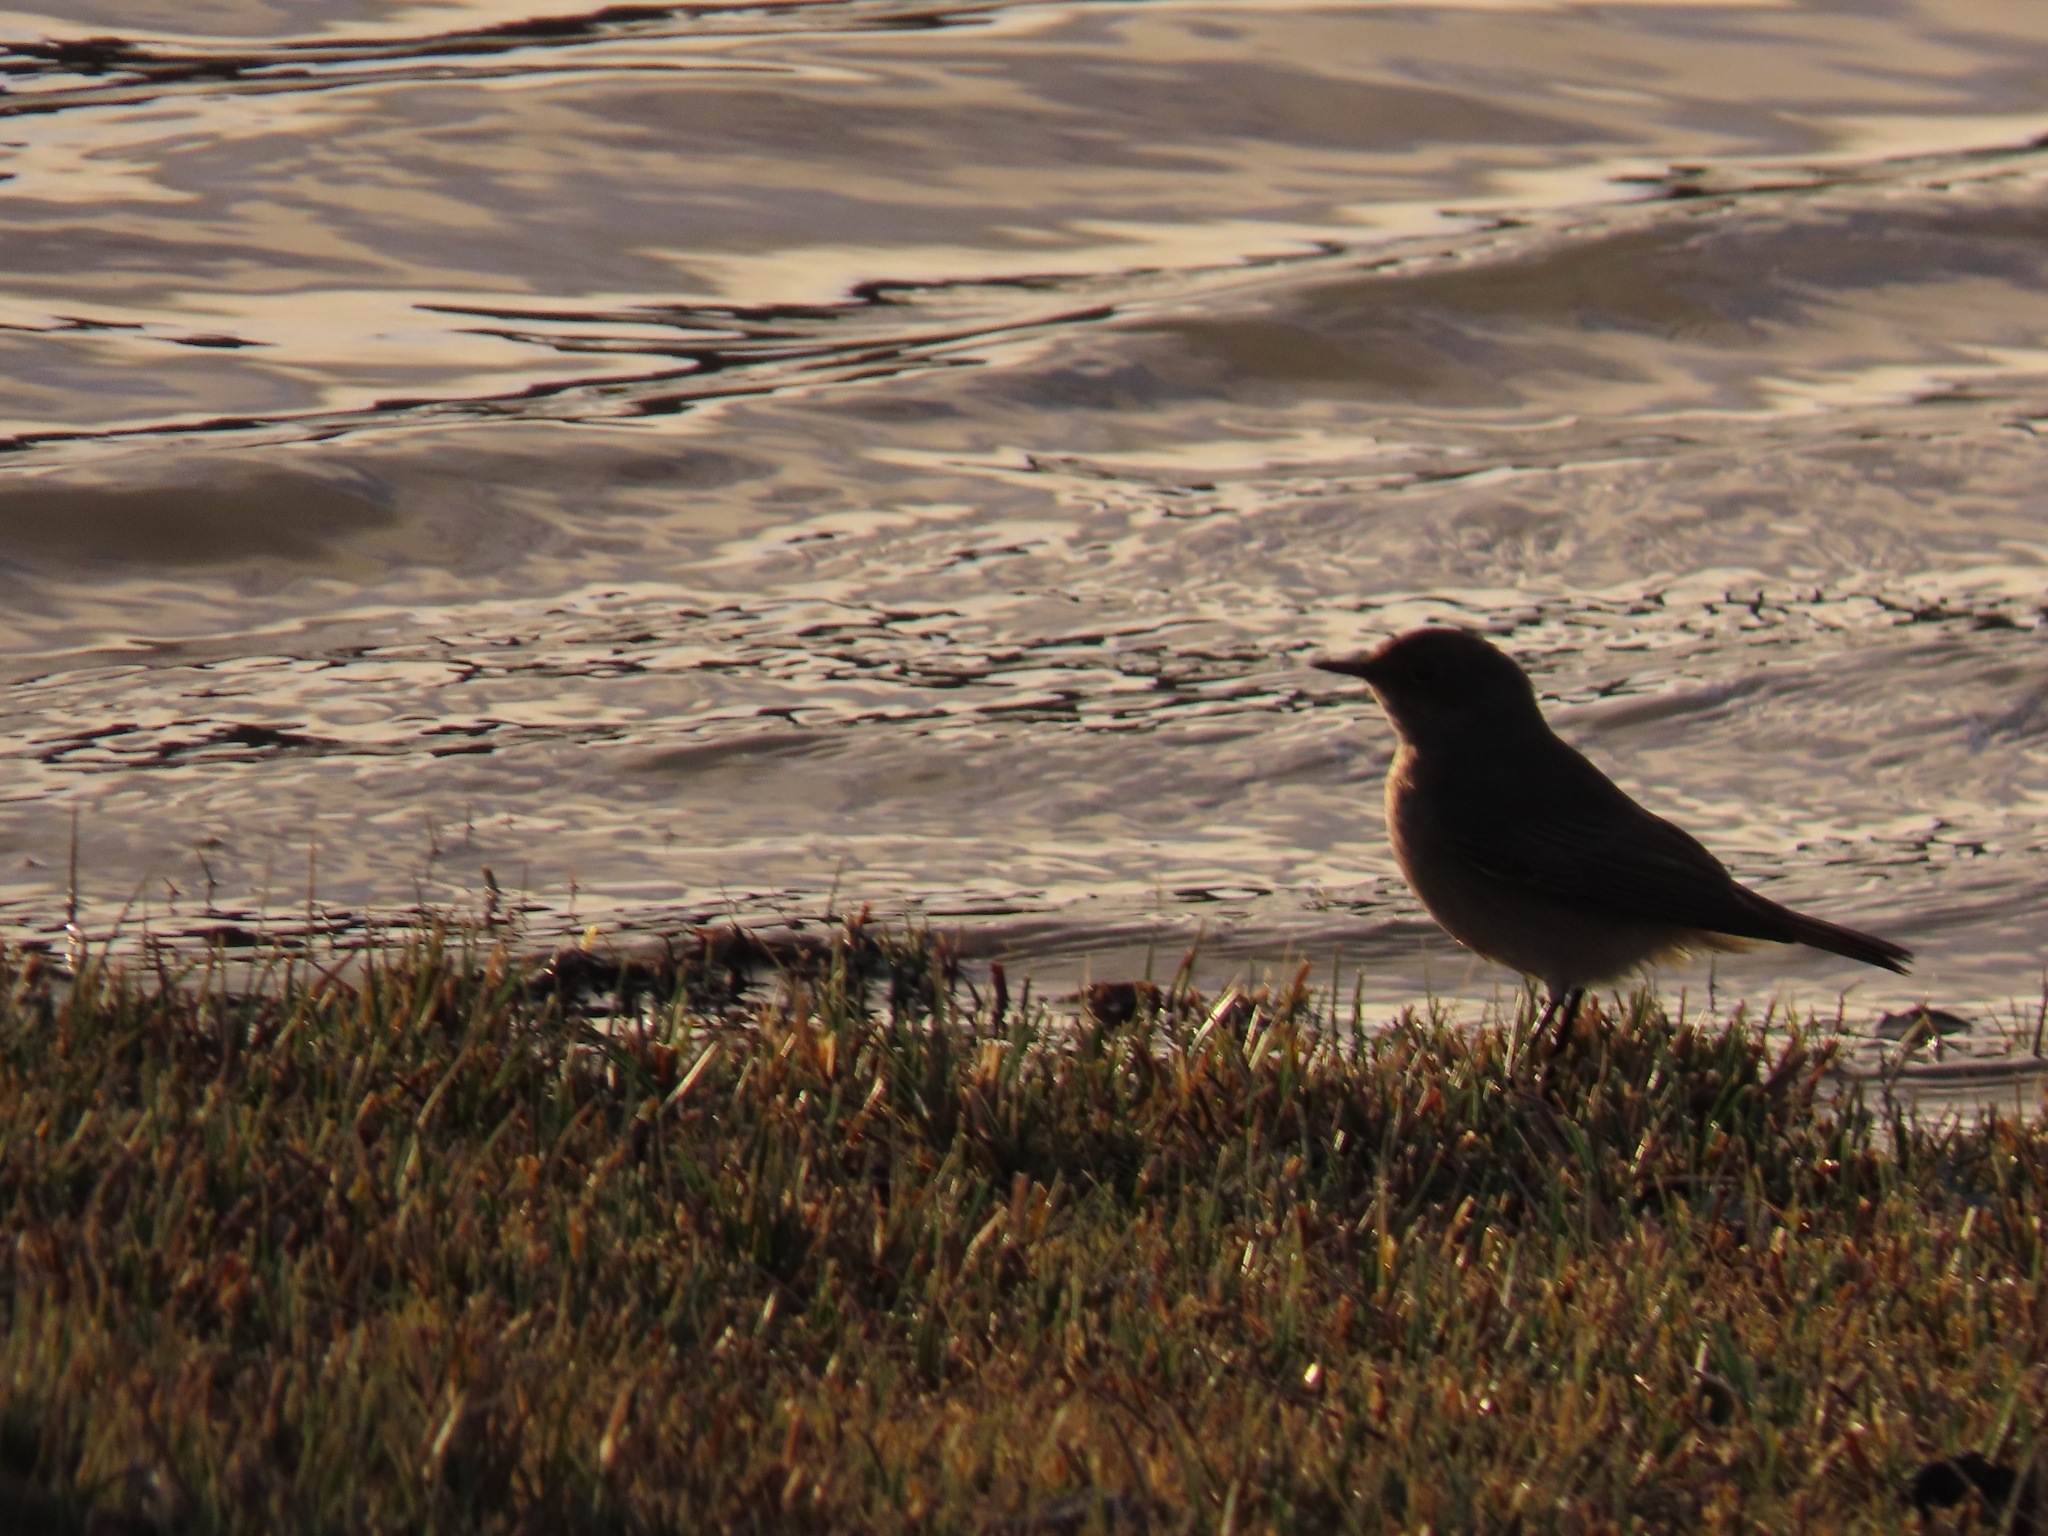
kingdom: Animalia
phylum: Chordata
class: Aves
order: Passeriformes
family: Muscicapidae
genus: Oenanthe
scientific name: Oenanthe familiaris
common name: Familiar chat
